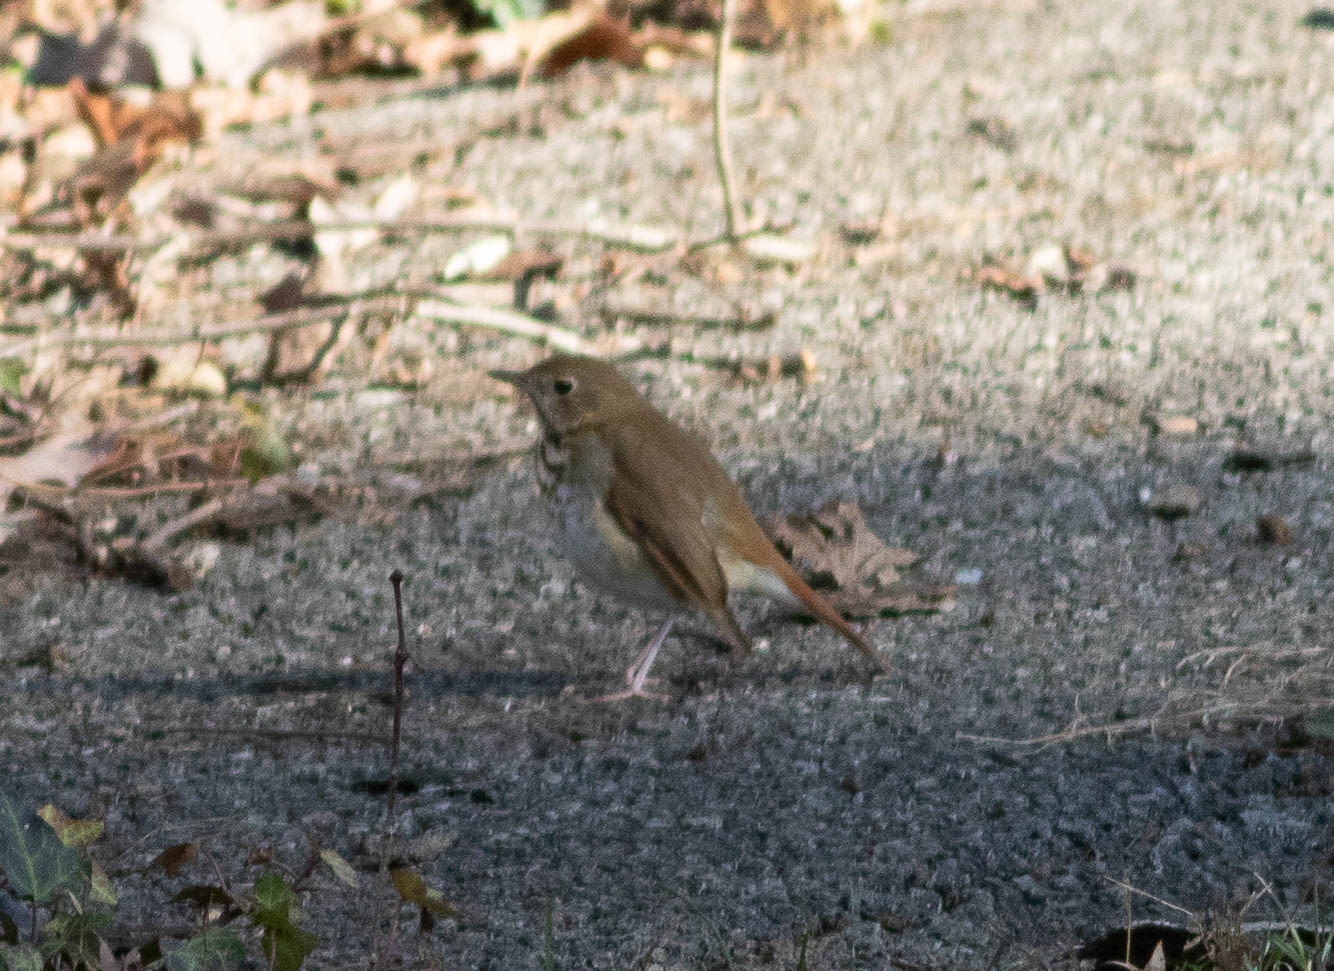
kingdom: Animalia
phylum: Chordata
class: Aves
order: Passeriformes
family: Turdidae
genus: Catharus
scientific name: Catharus guttatus
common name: Hermit thrush
